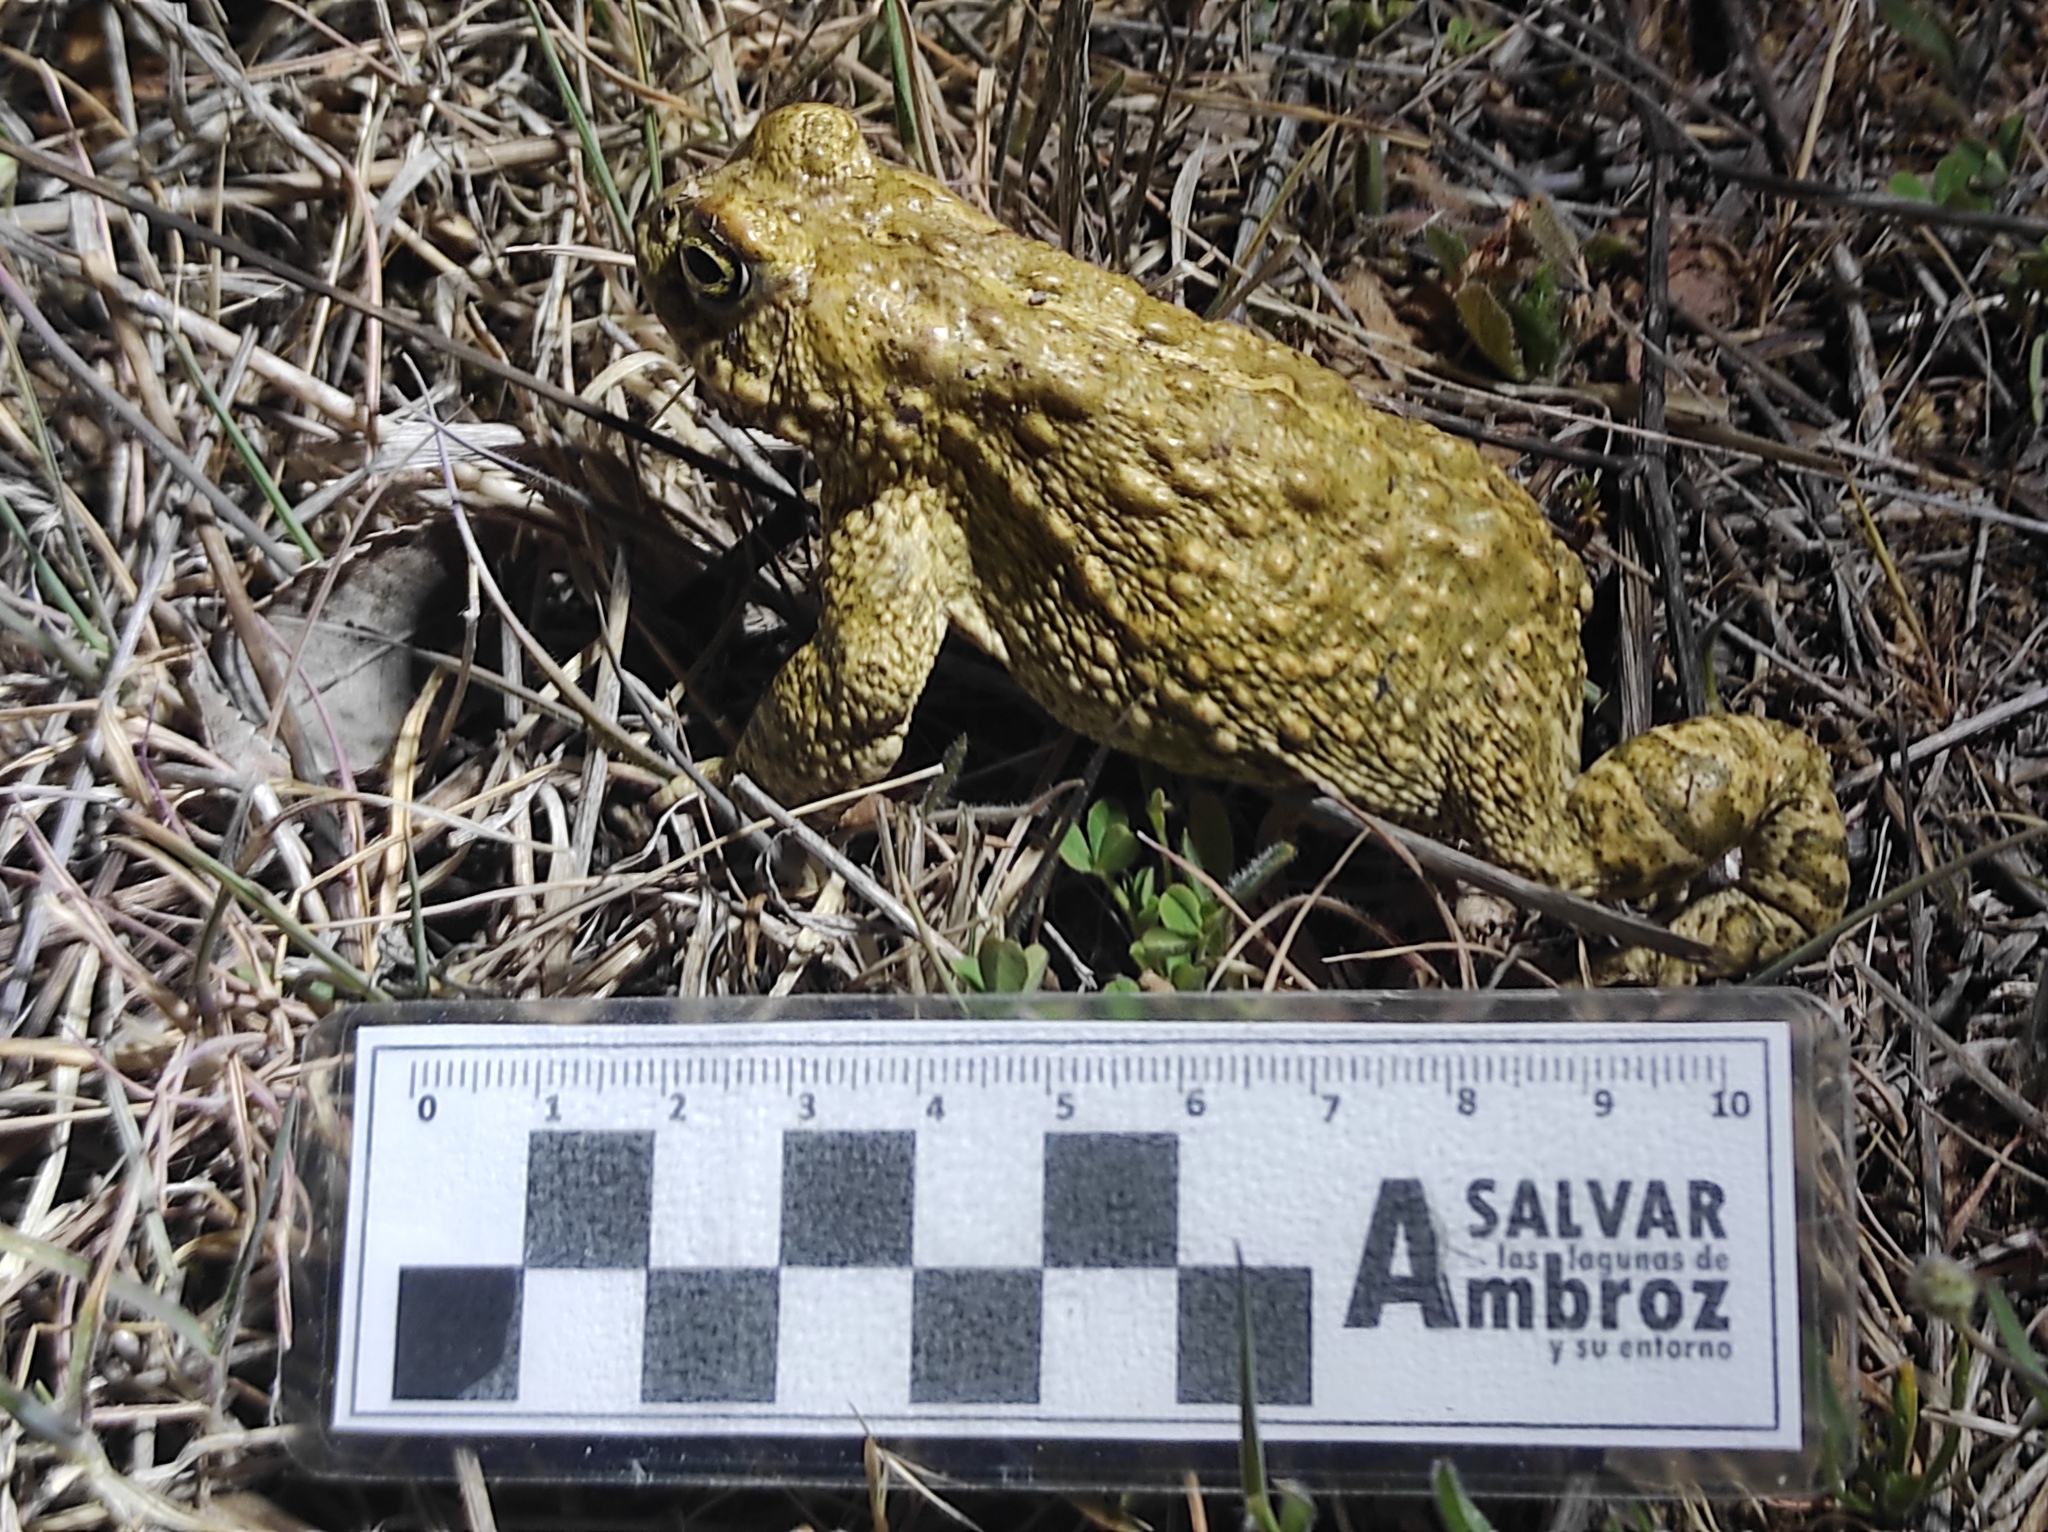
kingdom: Animalia
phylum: Chordata
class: Amphibia
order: Anura
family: Bufonidae
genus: Epidalea
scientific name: Epidalea calamita
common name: Natterjack toad
